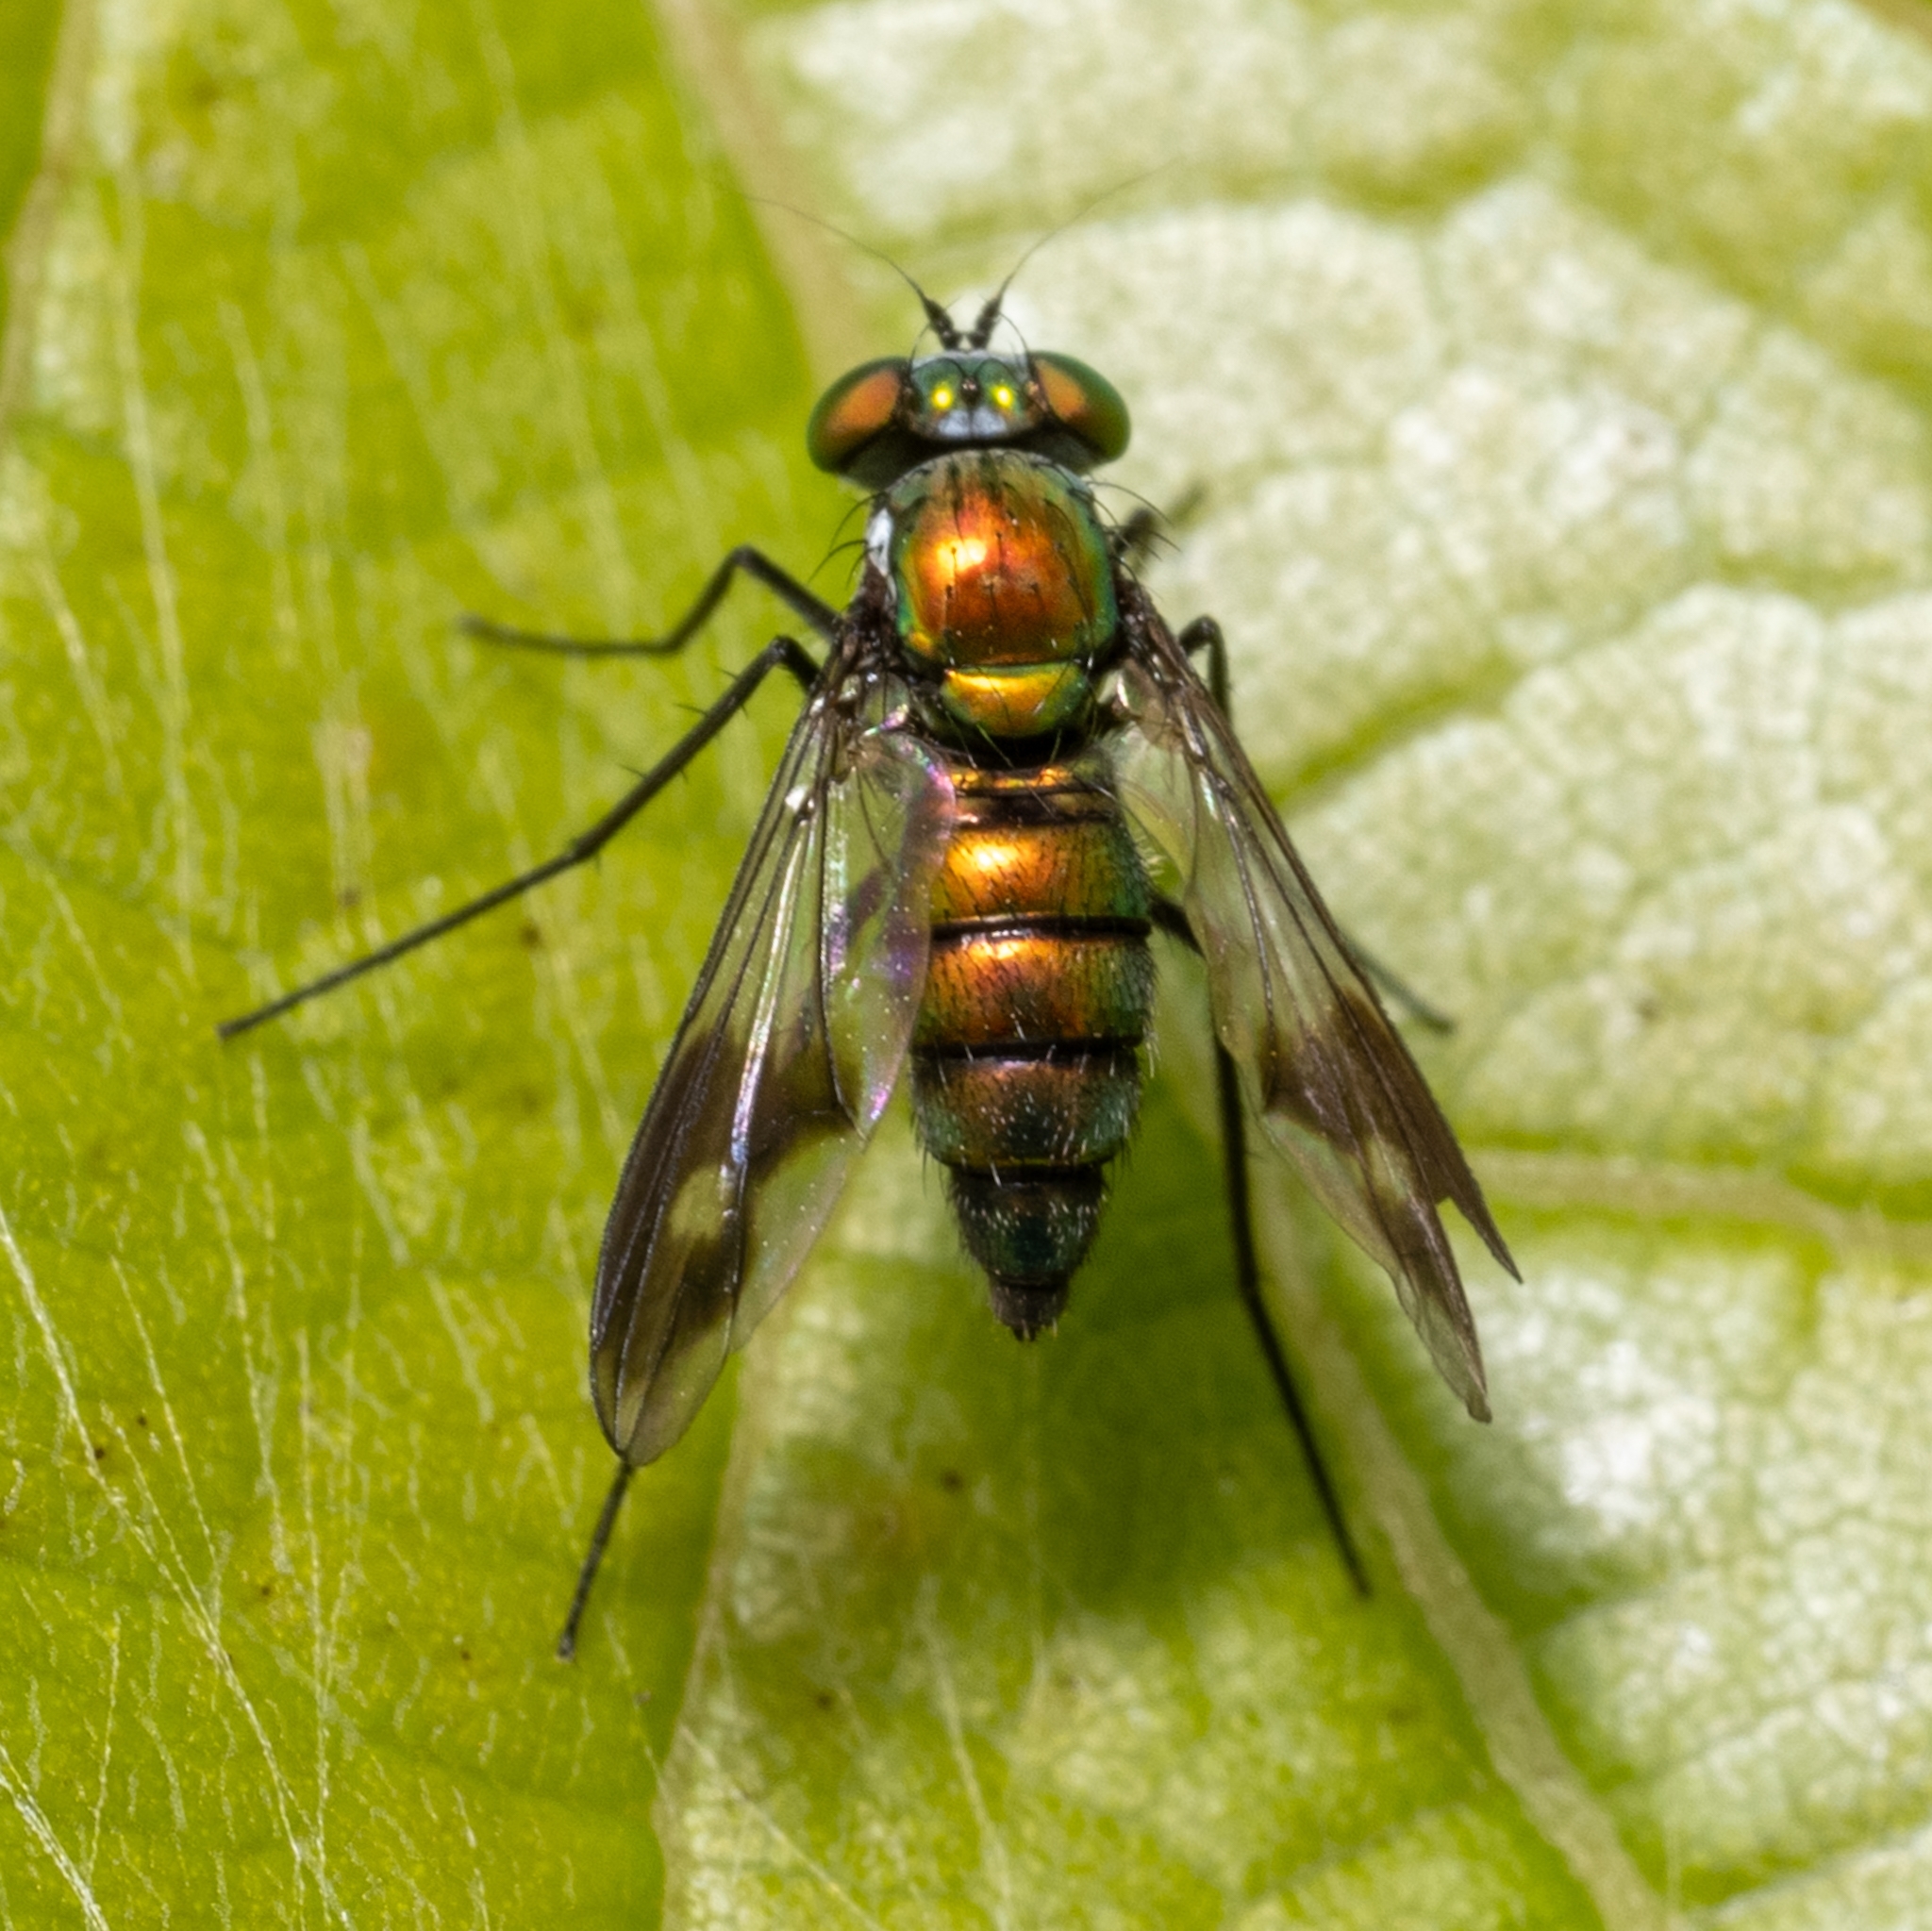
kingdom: Animalia
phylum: Arthropoda
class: Insecta
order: Diptera
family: Dolichopodidae
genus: Condylostylus
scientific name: Condylostylus patibulatus
